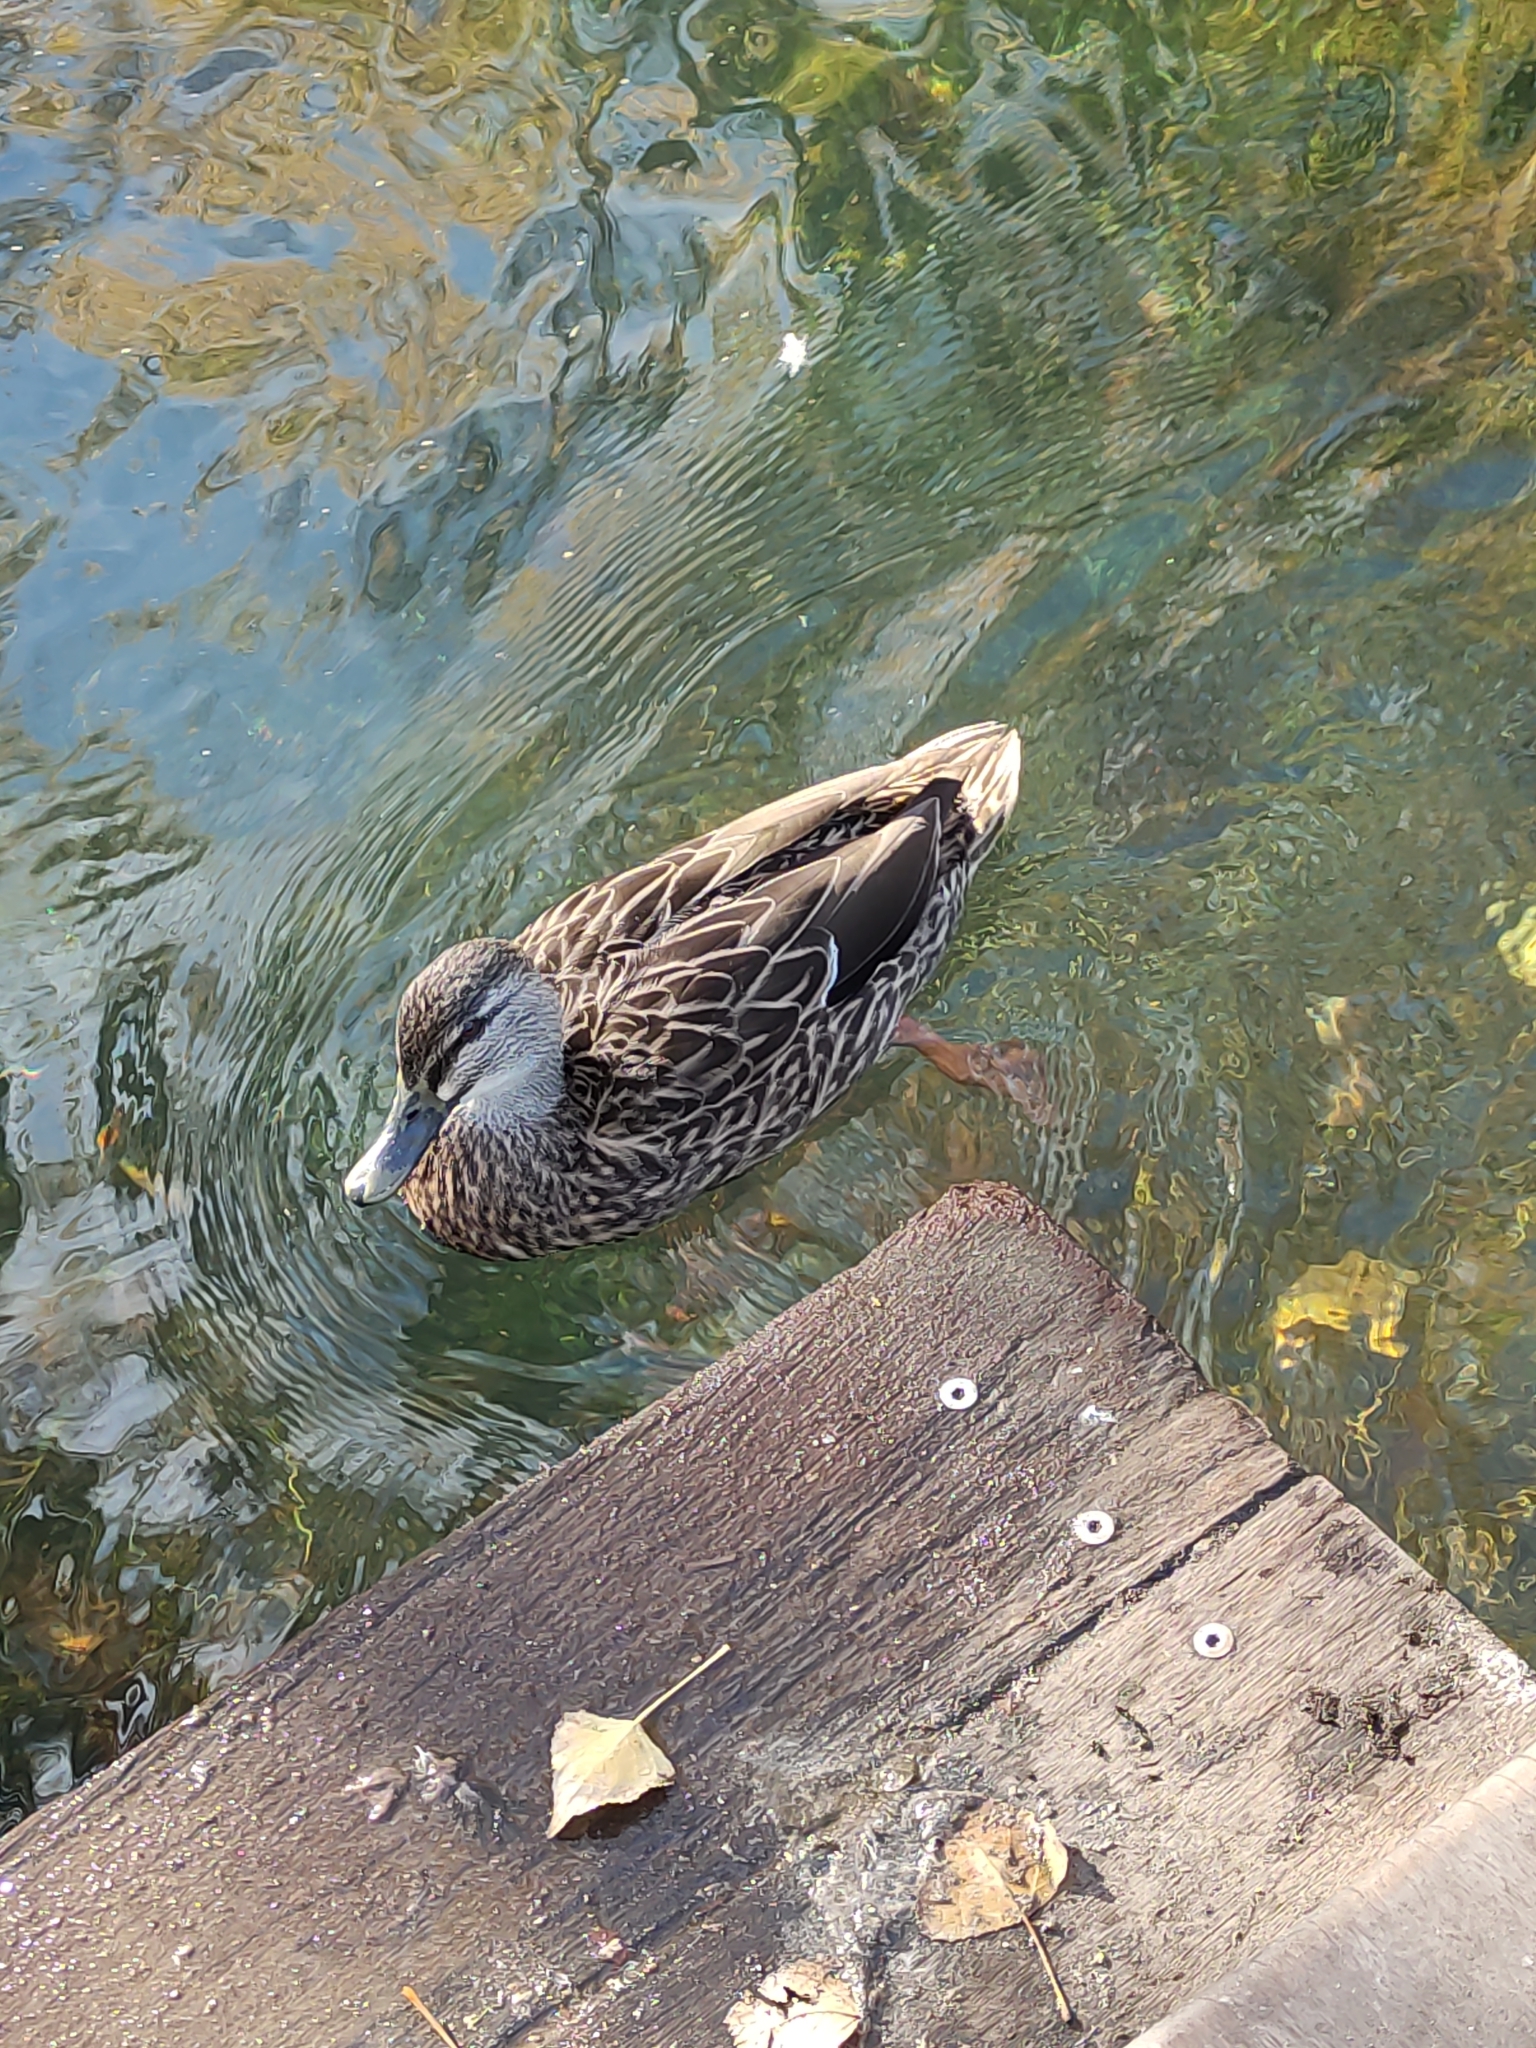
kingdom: Animalia
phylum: Chordata
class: Aves
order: Anseriformes
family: Anatidae
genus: Anas
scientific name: Anas
